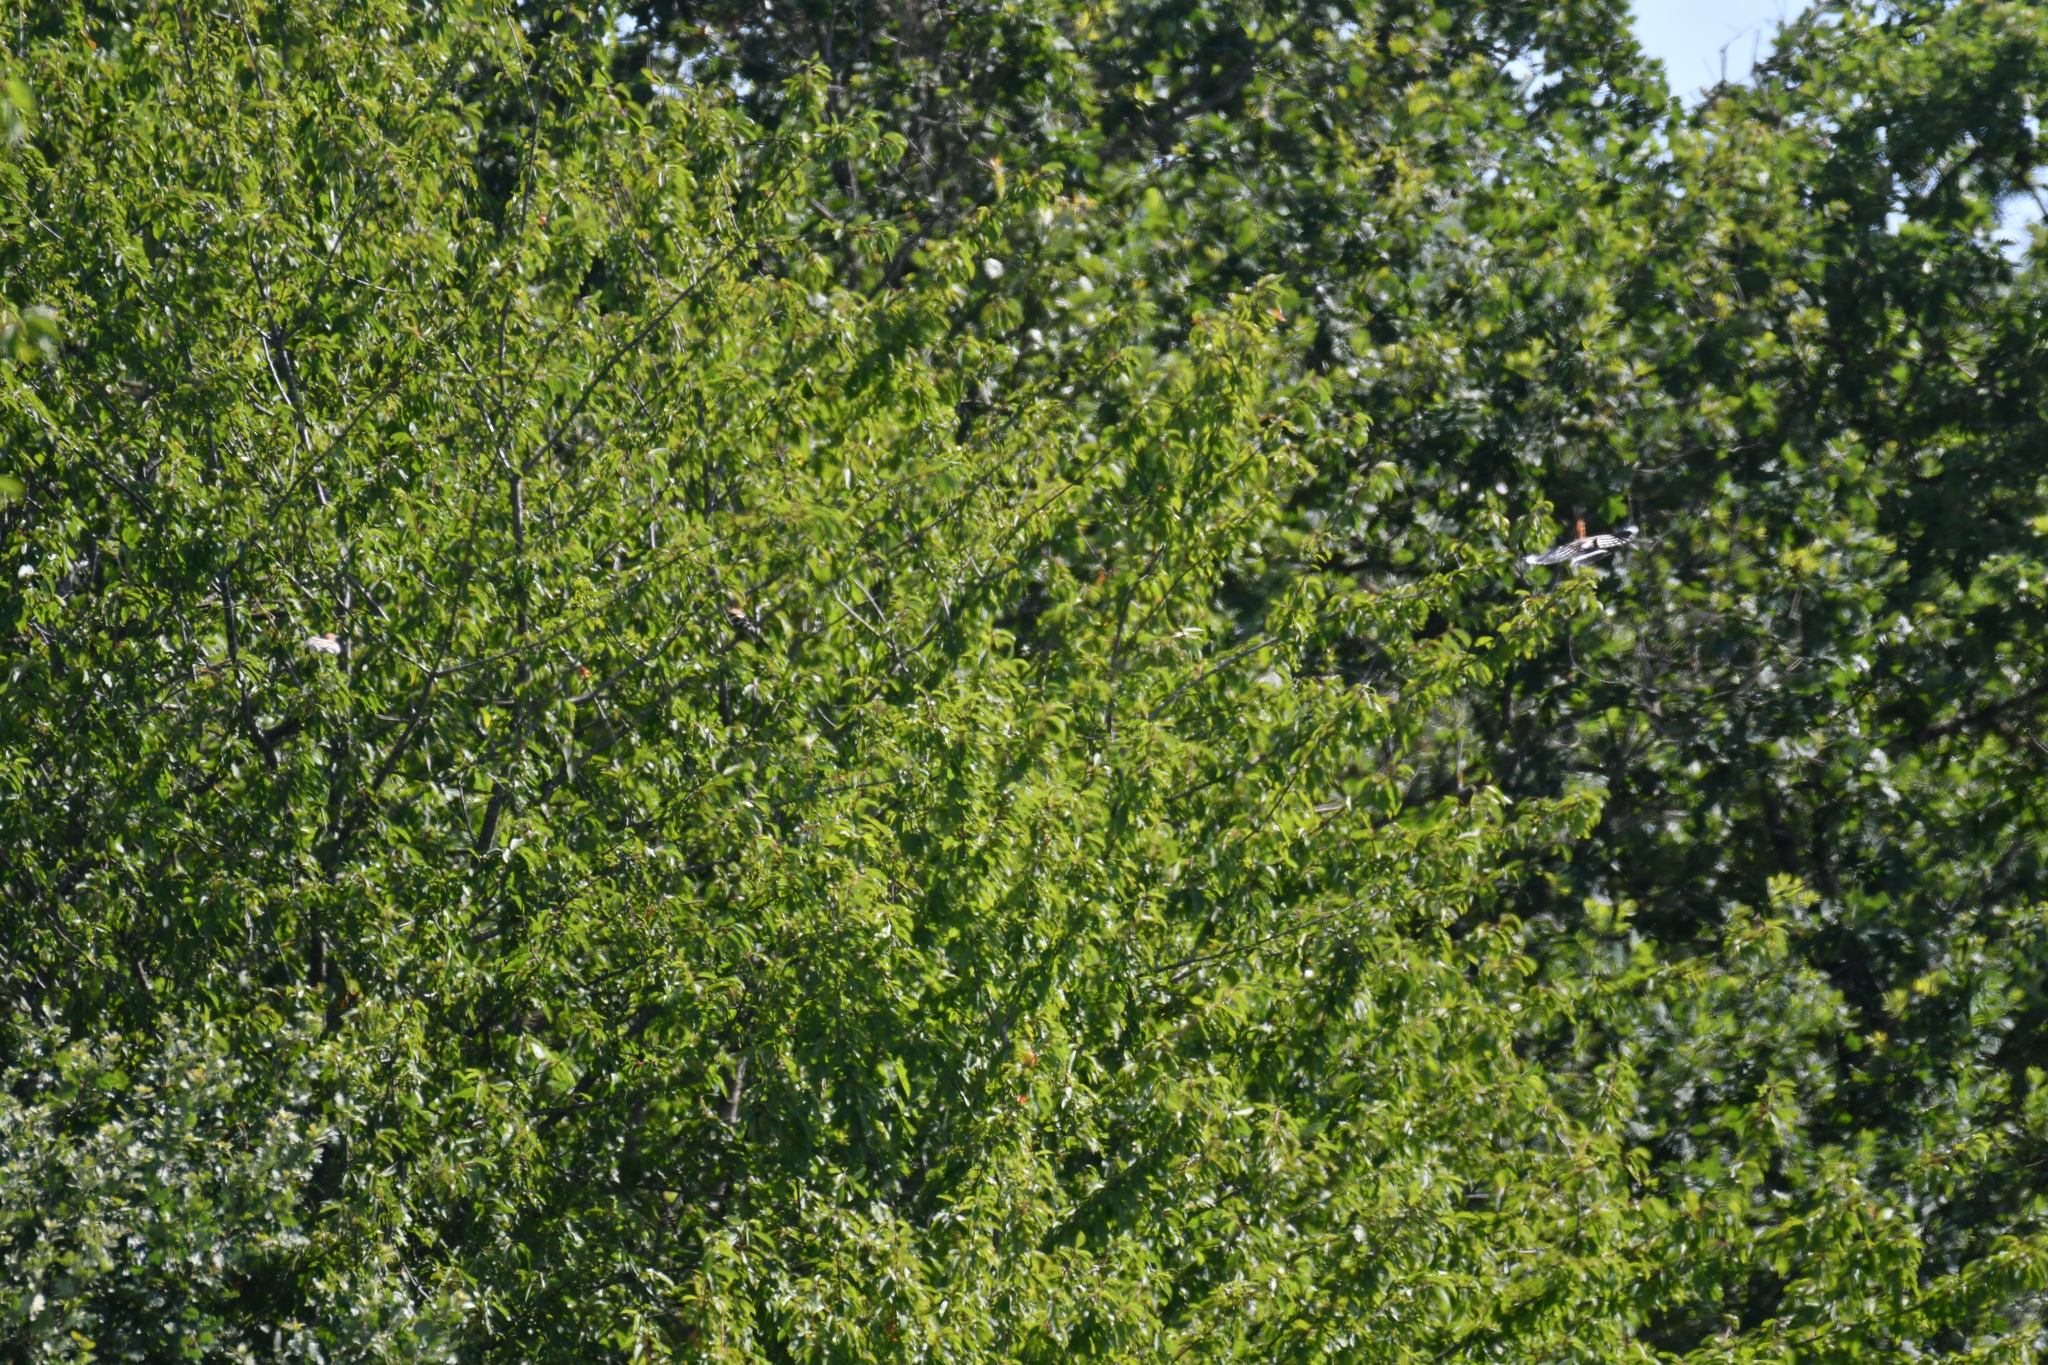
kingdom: Animalia
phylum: Chordata
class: Aves
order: Bucerotiformes
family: Upupidae
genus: Upupa
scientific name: Upupa epops
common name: Eurasian hoopoe
